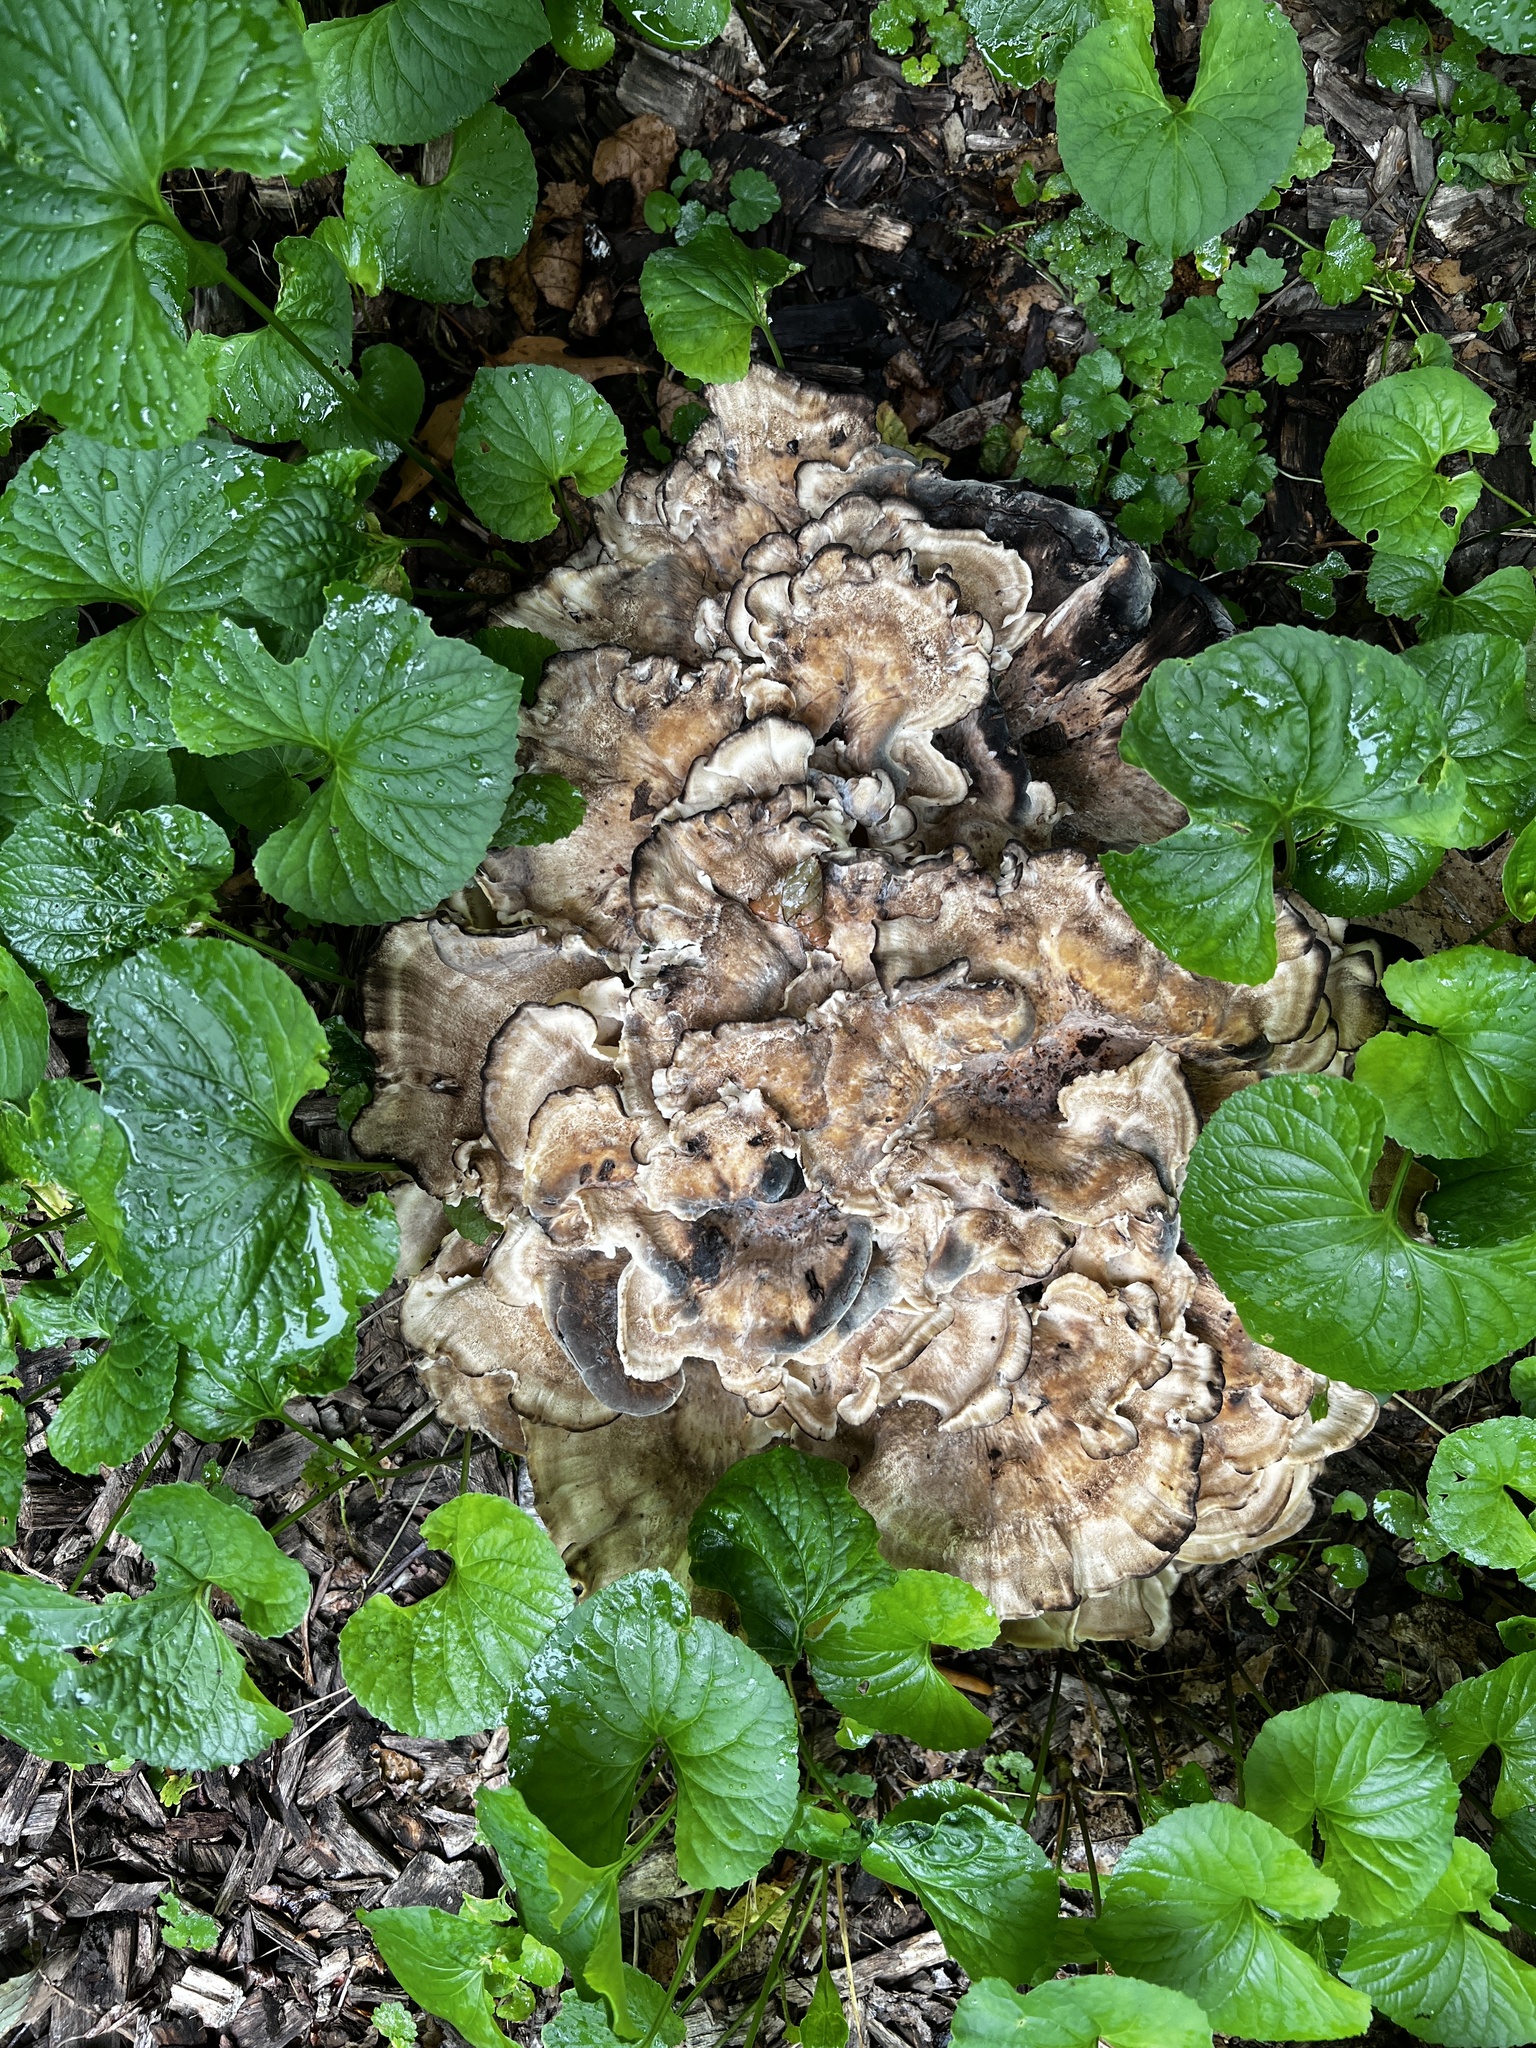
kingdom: Fungi
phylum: Basidiomycota
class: Agaricomycetes
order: Polyporales
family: Meripilaceae
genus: Meripilus
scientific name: Meripilus sumstinei
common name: Black-staining polypore
